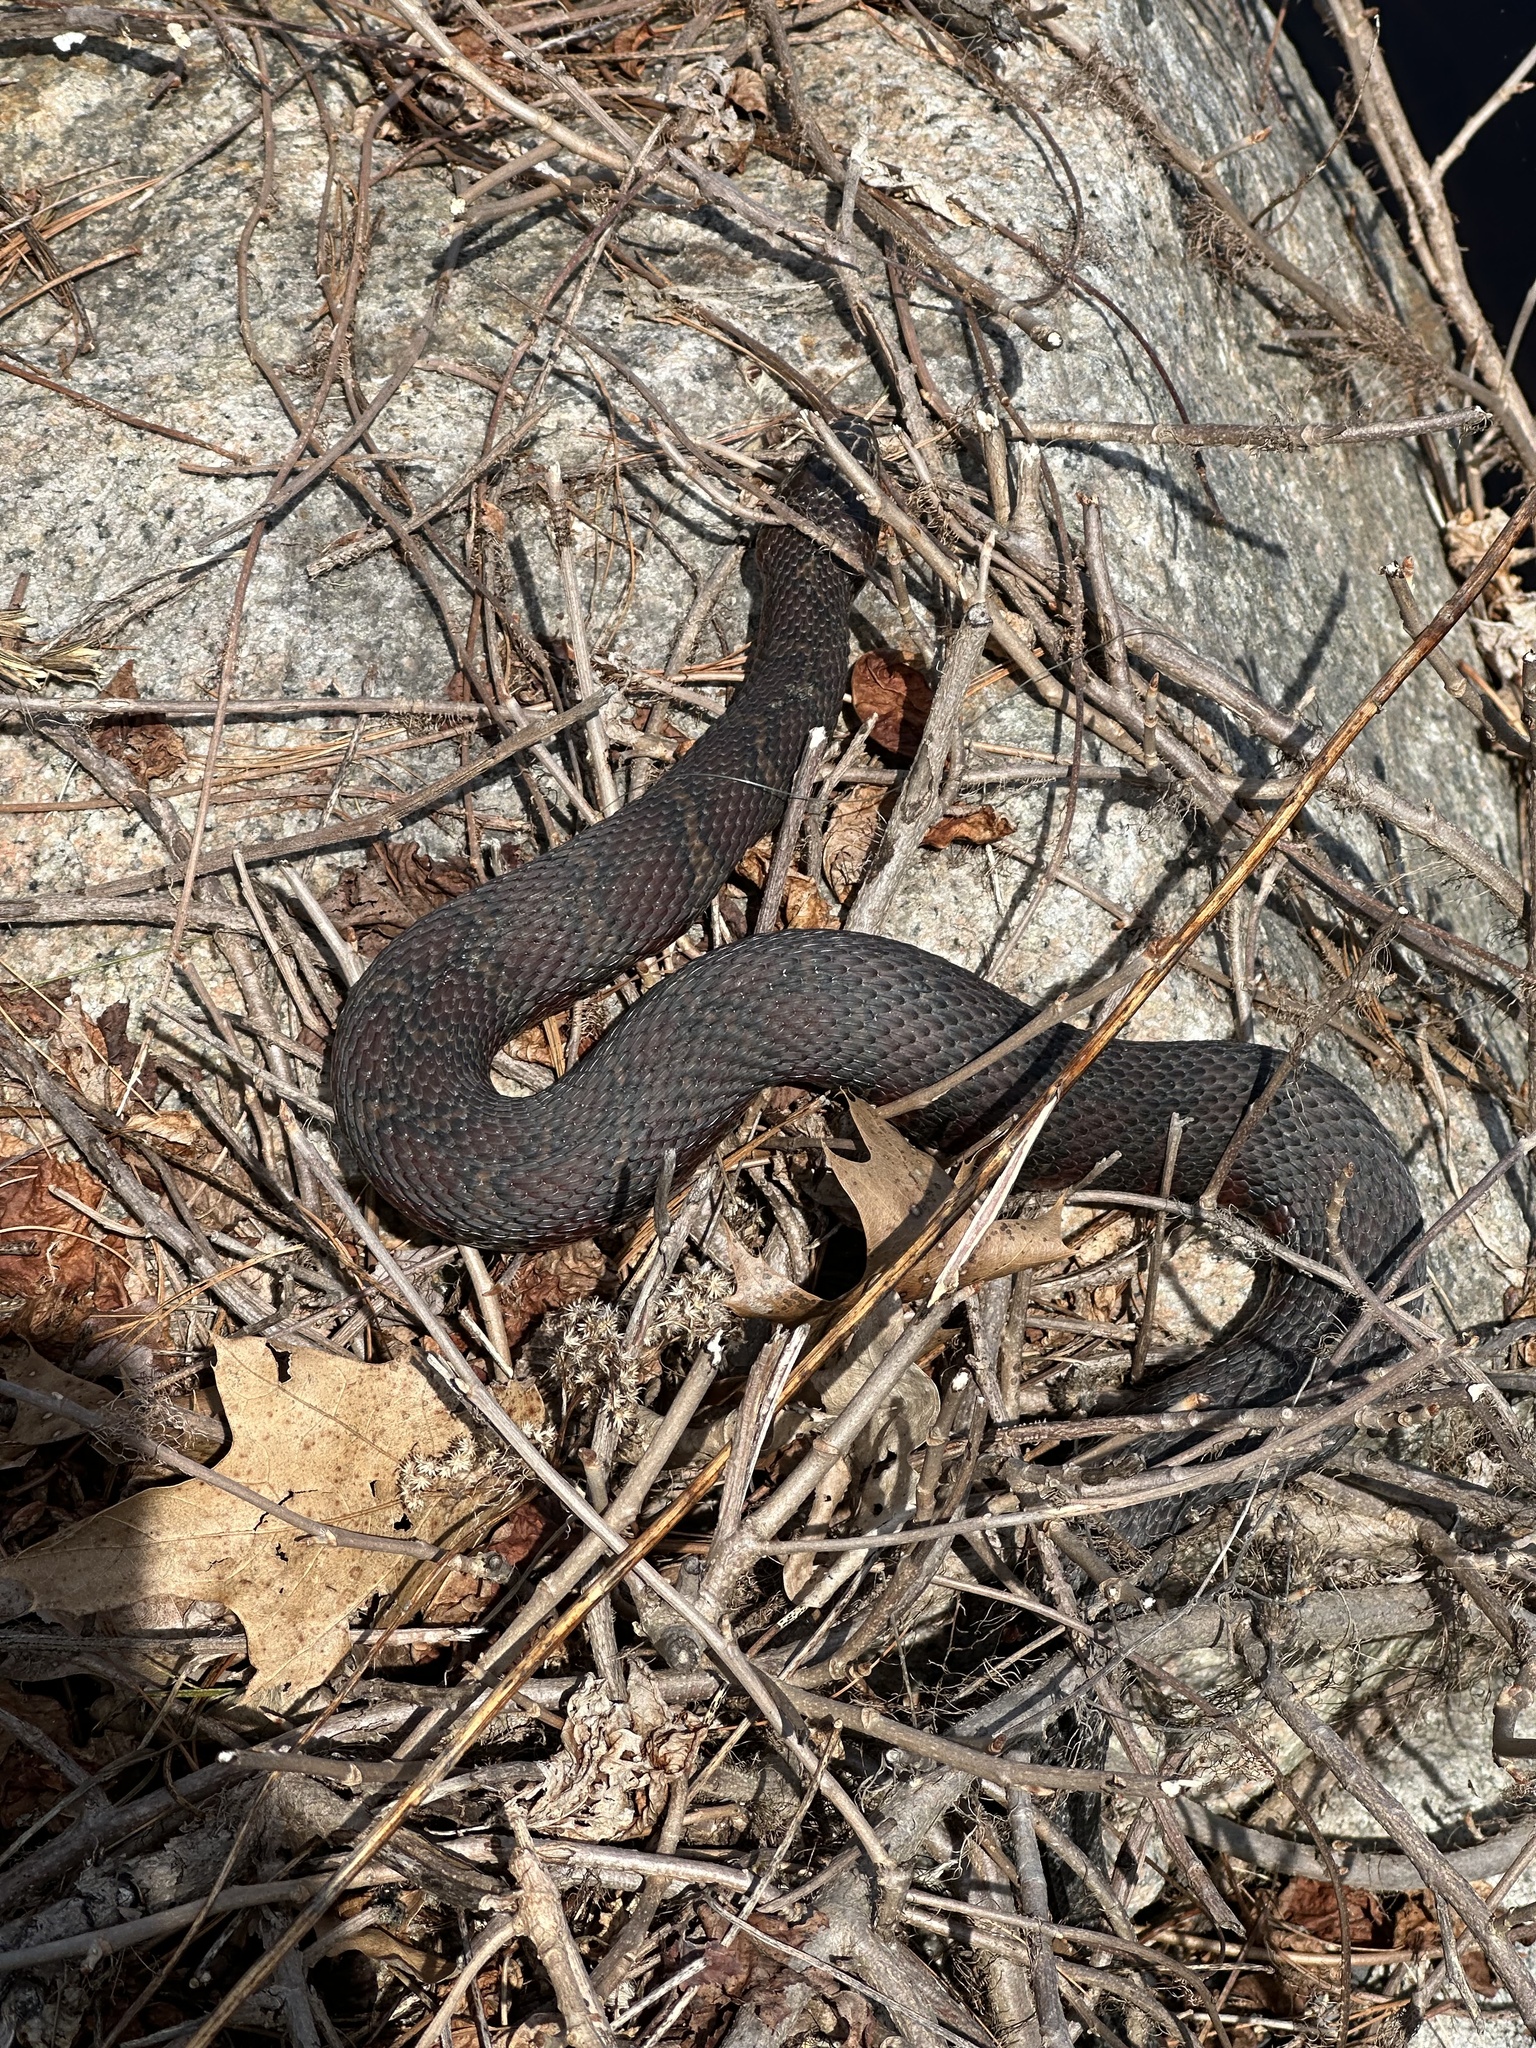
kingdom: Animalia
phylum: Chordata
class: Squamata
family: Colubridae
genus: Nerodia
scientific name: Nerodia sipedon
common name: Northern water snake
